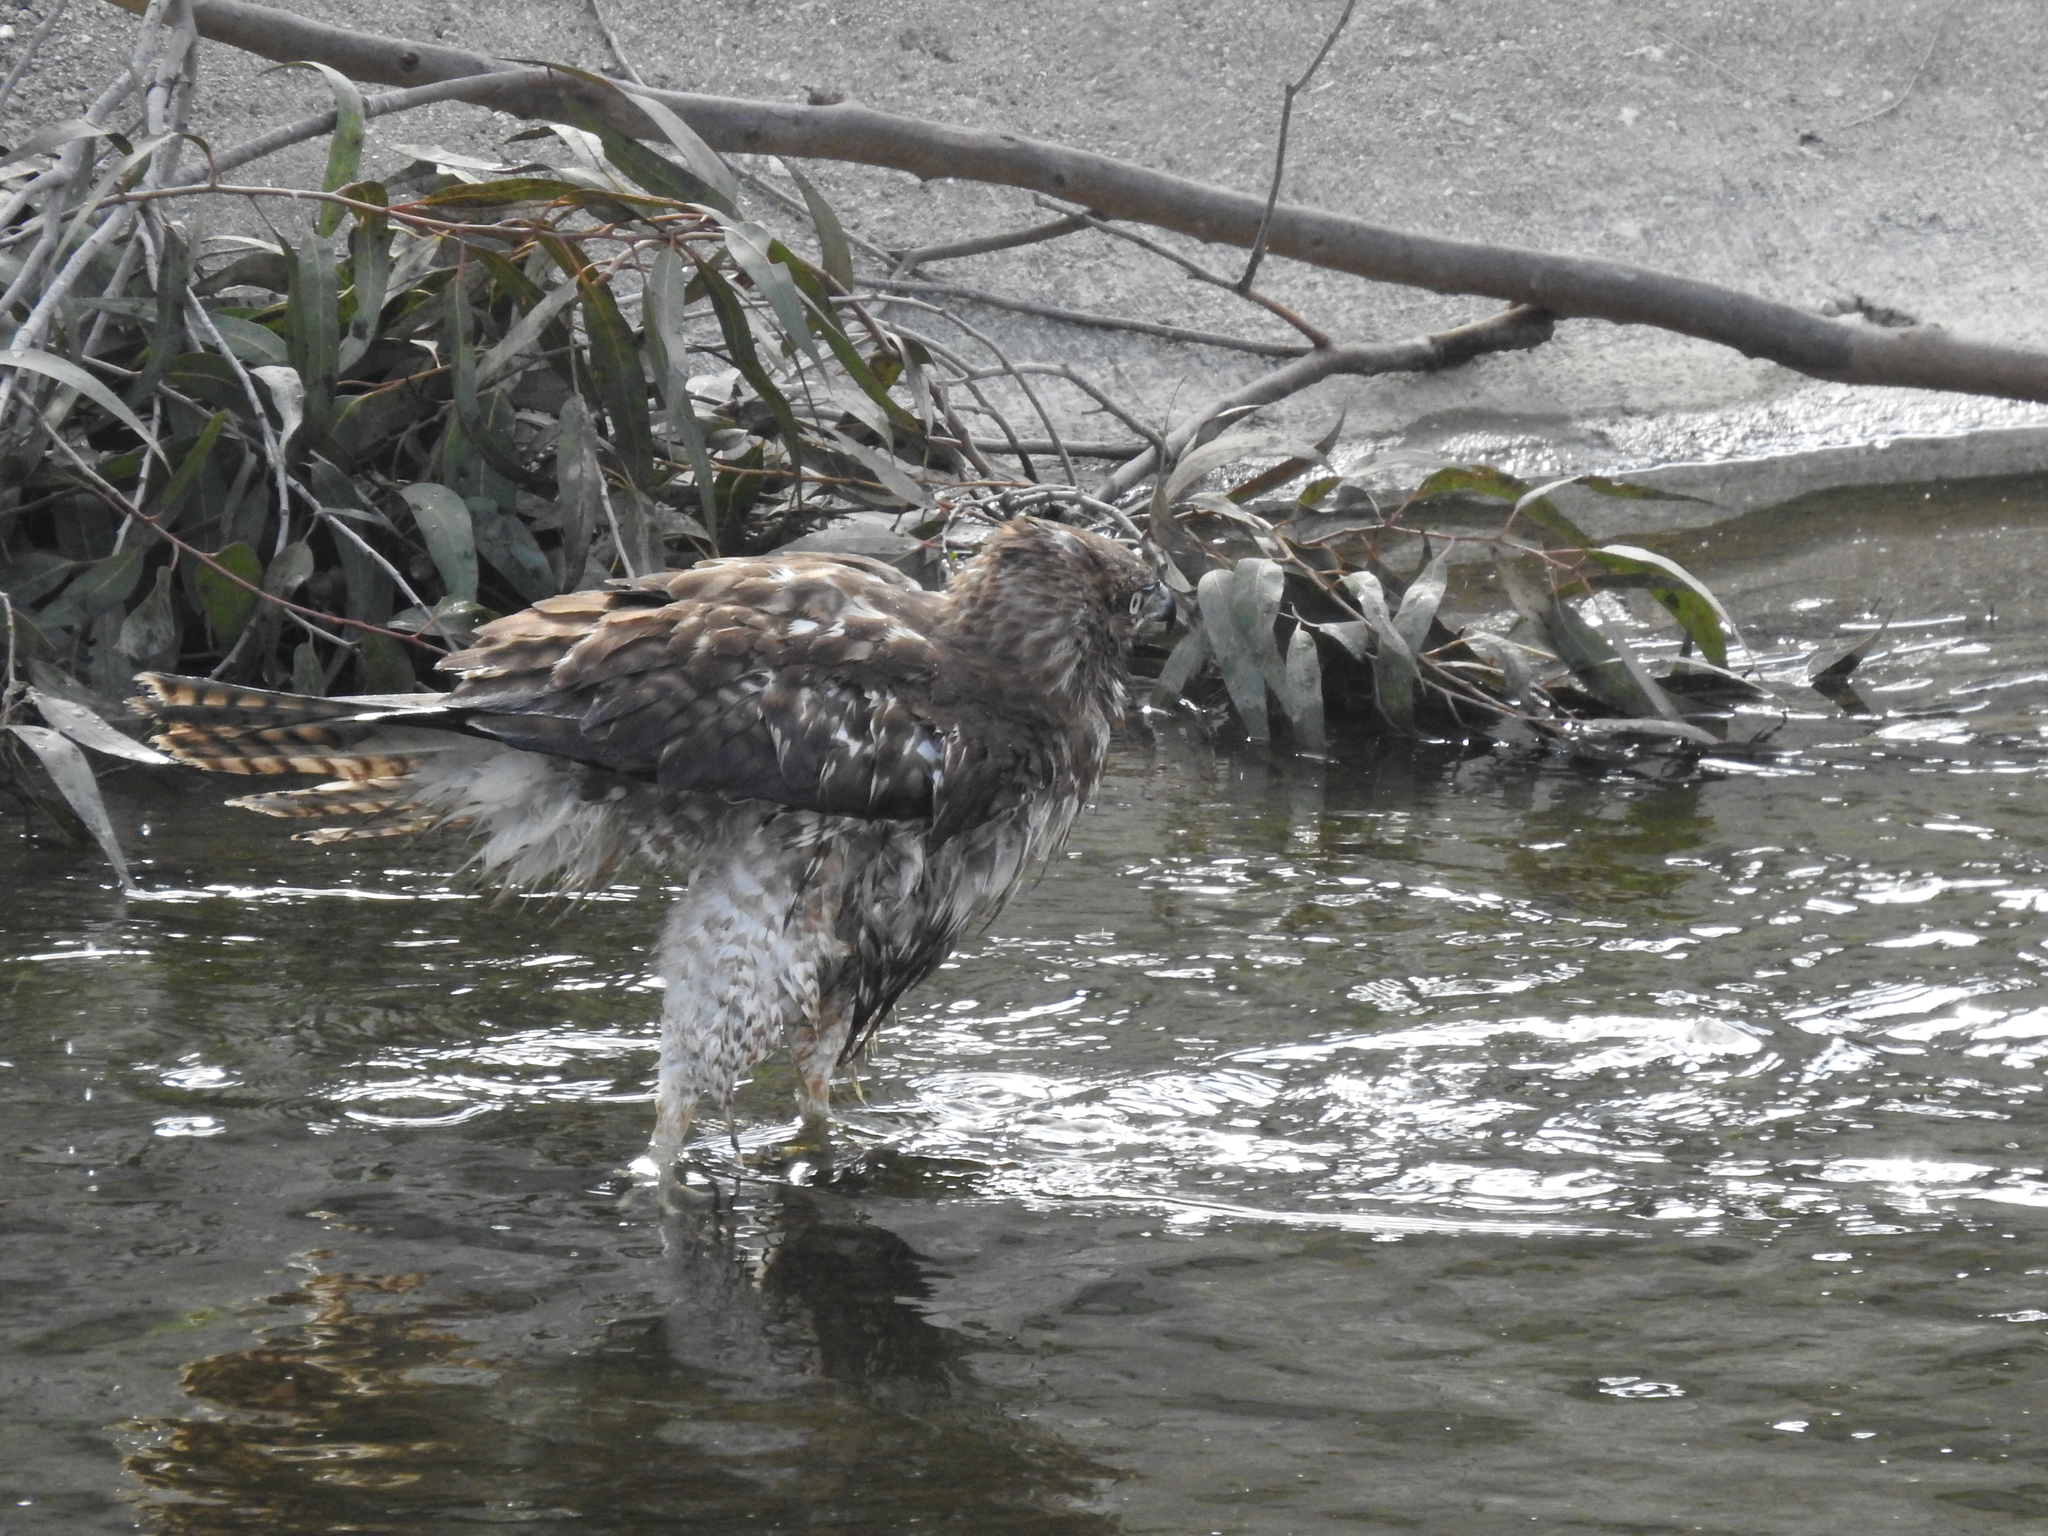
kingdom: Animalia
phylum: Chordata
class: Aves
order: Accipitriformes
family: Accipitridae
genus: Buteo
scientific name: Buteo jamaicensis
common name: Red-tailed hawk
